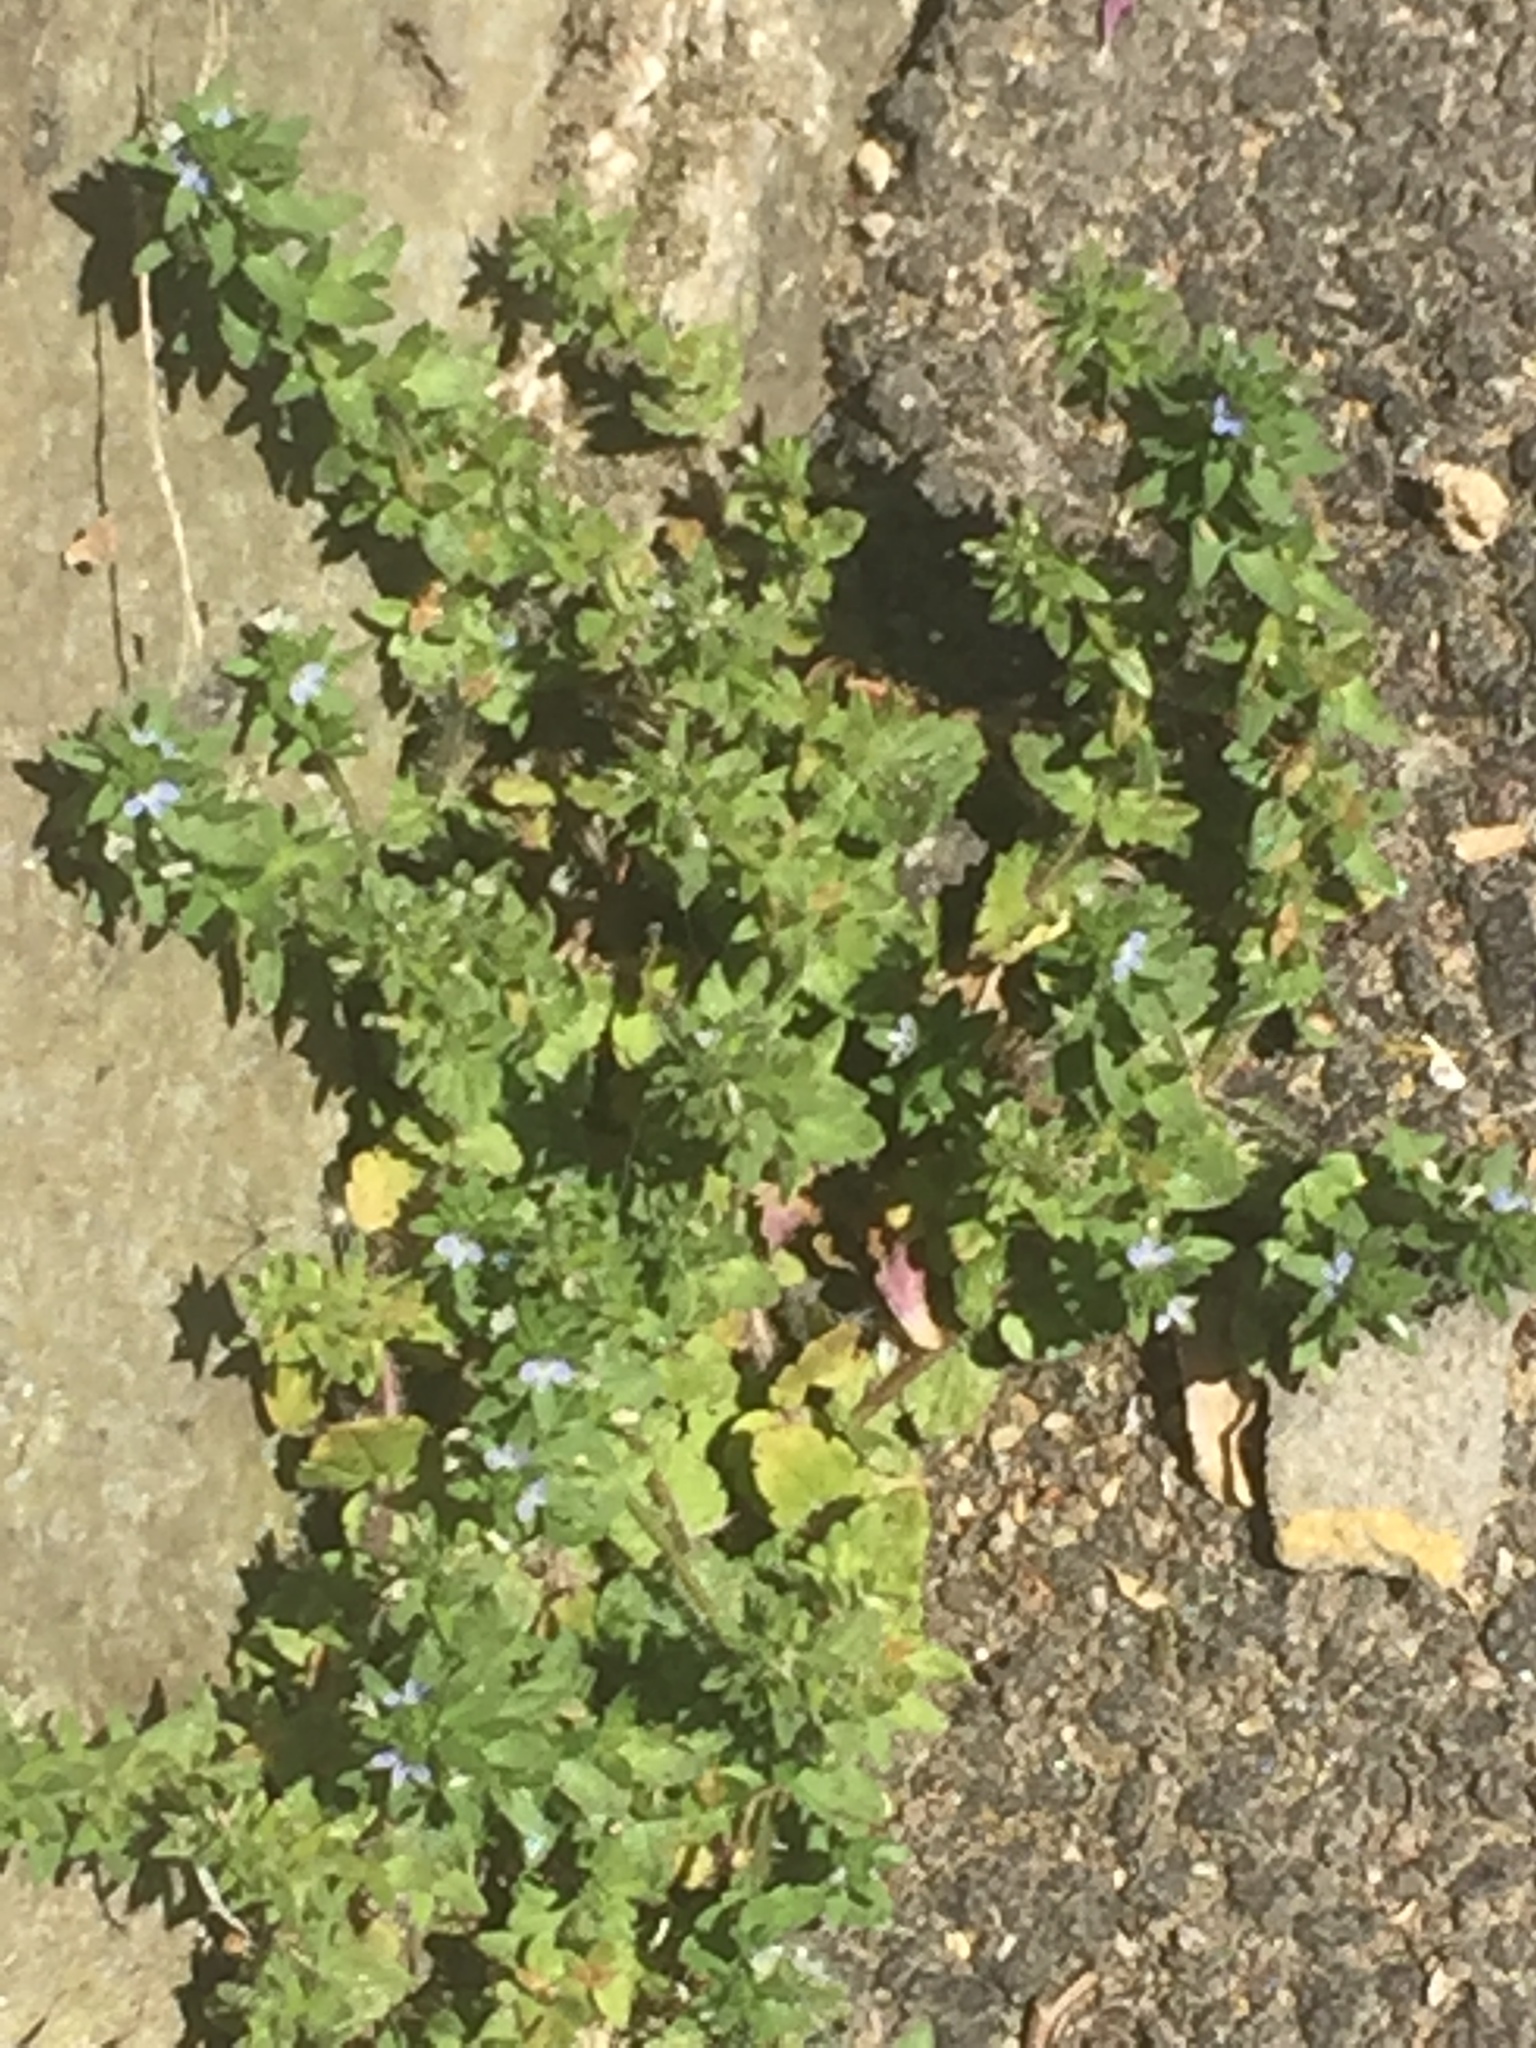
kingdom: Plantae
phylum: Tracheophyta
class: Magnoliopsida
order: Lamiales
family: Plantaginaceae
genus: Veronica
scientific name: Veronica arvensis
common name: Corn speedwell
